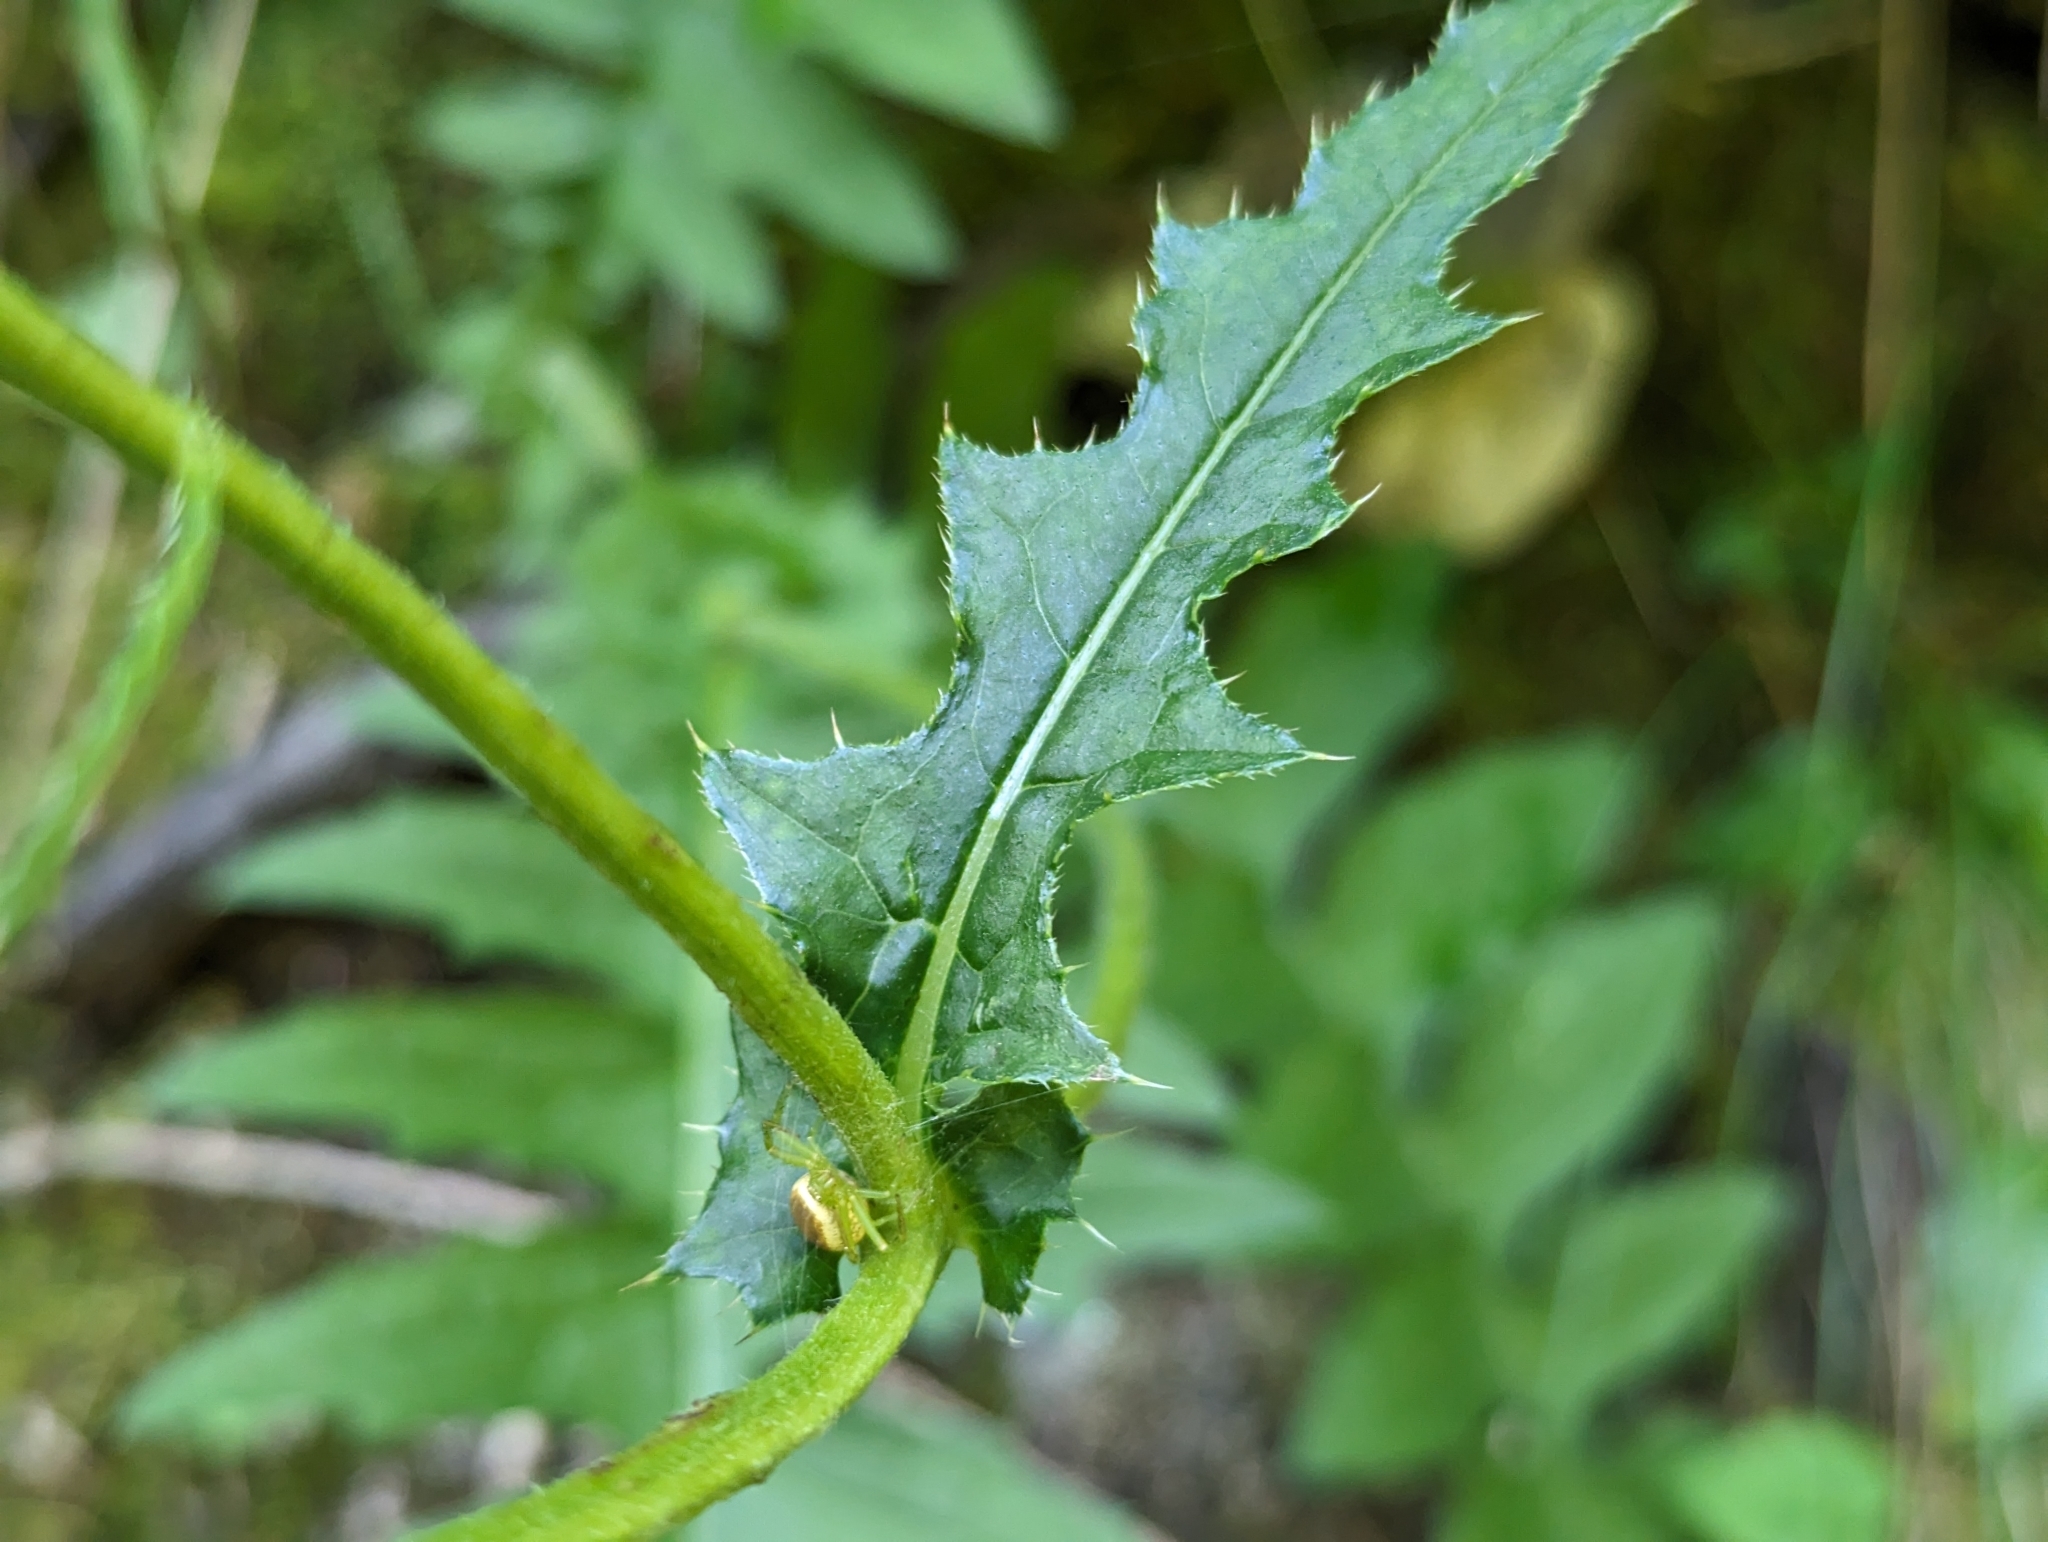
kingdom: Plantae
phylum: Tracheophyta
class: Magnoliopsida
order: Asterales
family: Asteraceae
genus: Cirsium
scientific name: Cirsium erisithales
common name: Yellow thistle
